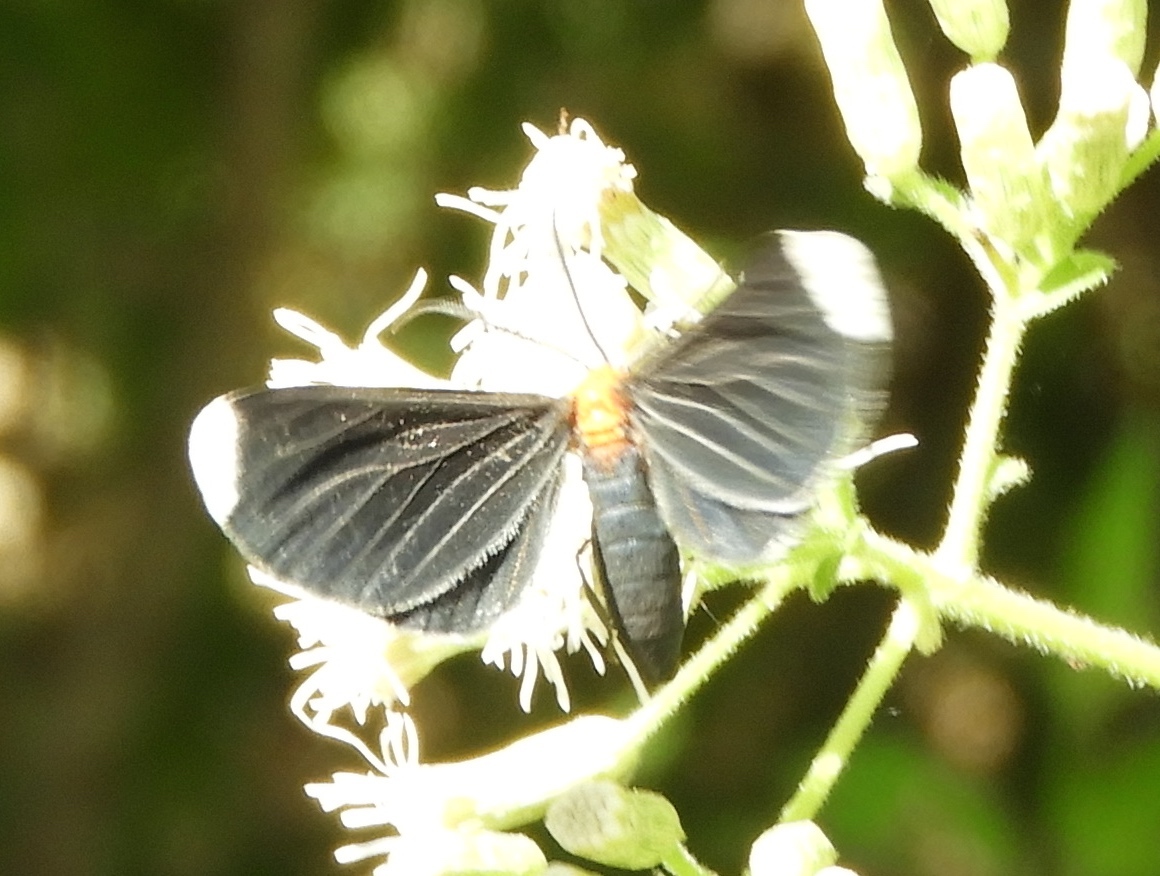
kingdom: Animalia
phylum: Arthropoda
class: Insecta
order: Lepidoptera
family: Geometridae
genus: Melanchroia
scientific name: Melanchroia chephise
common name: White-tipped black
